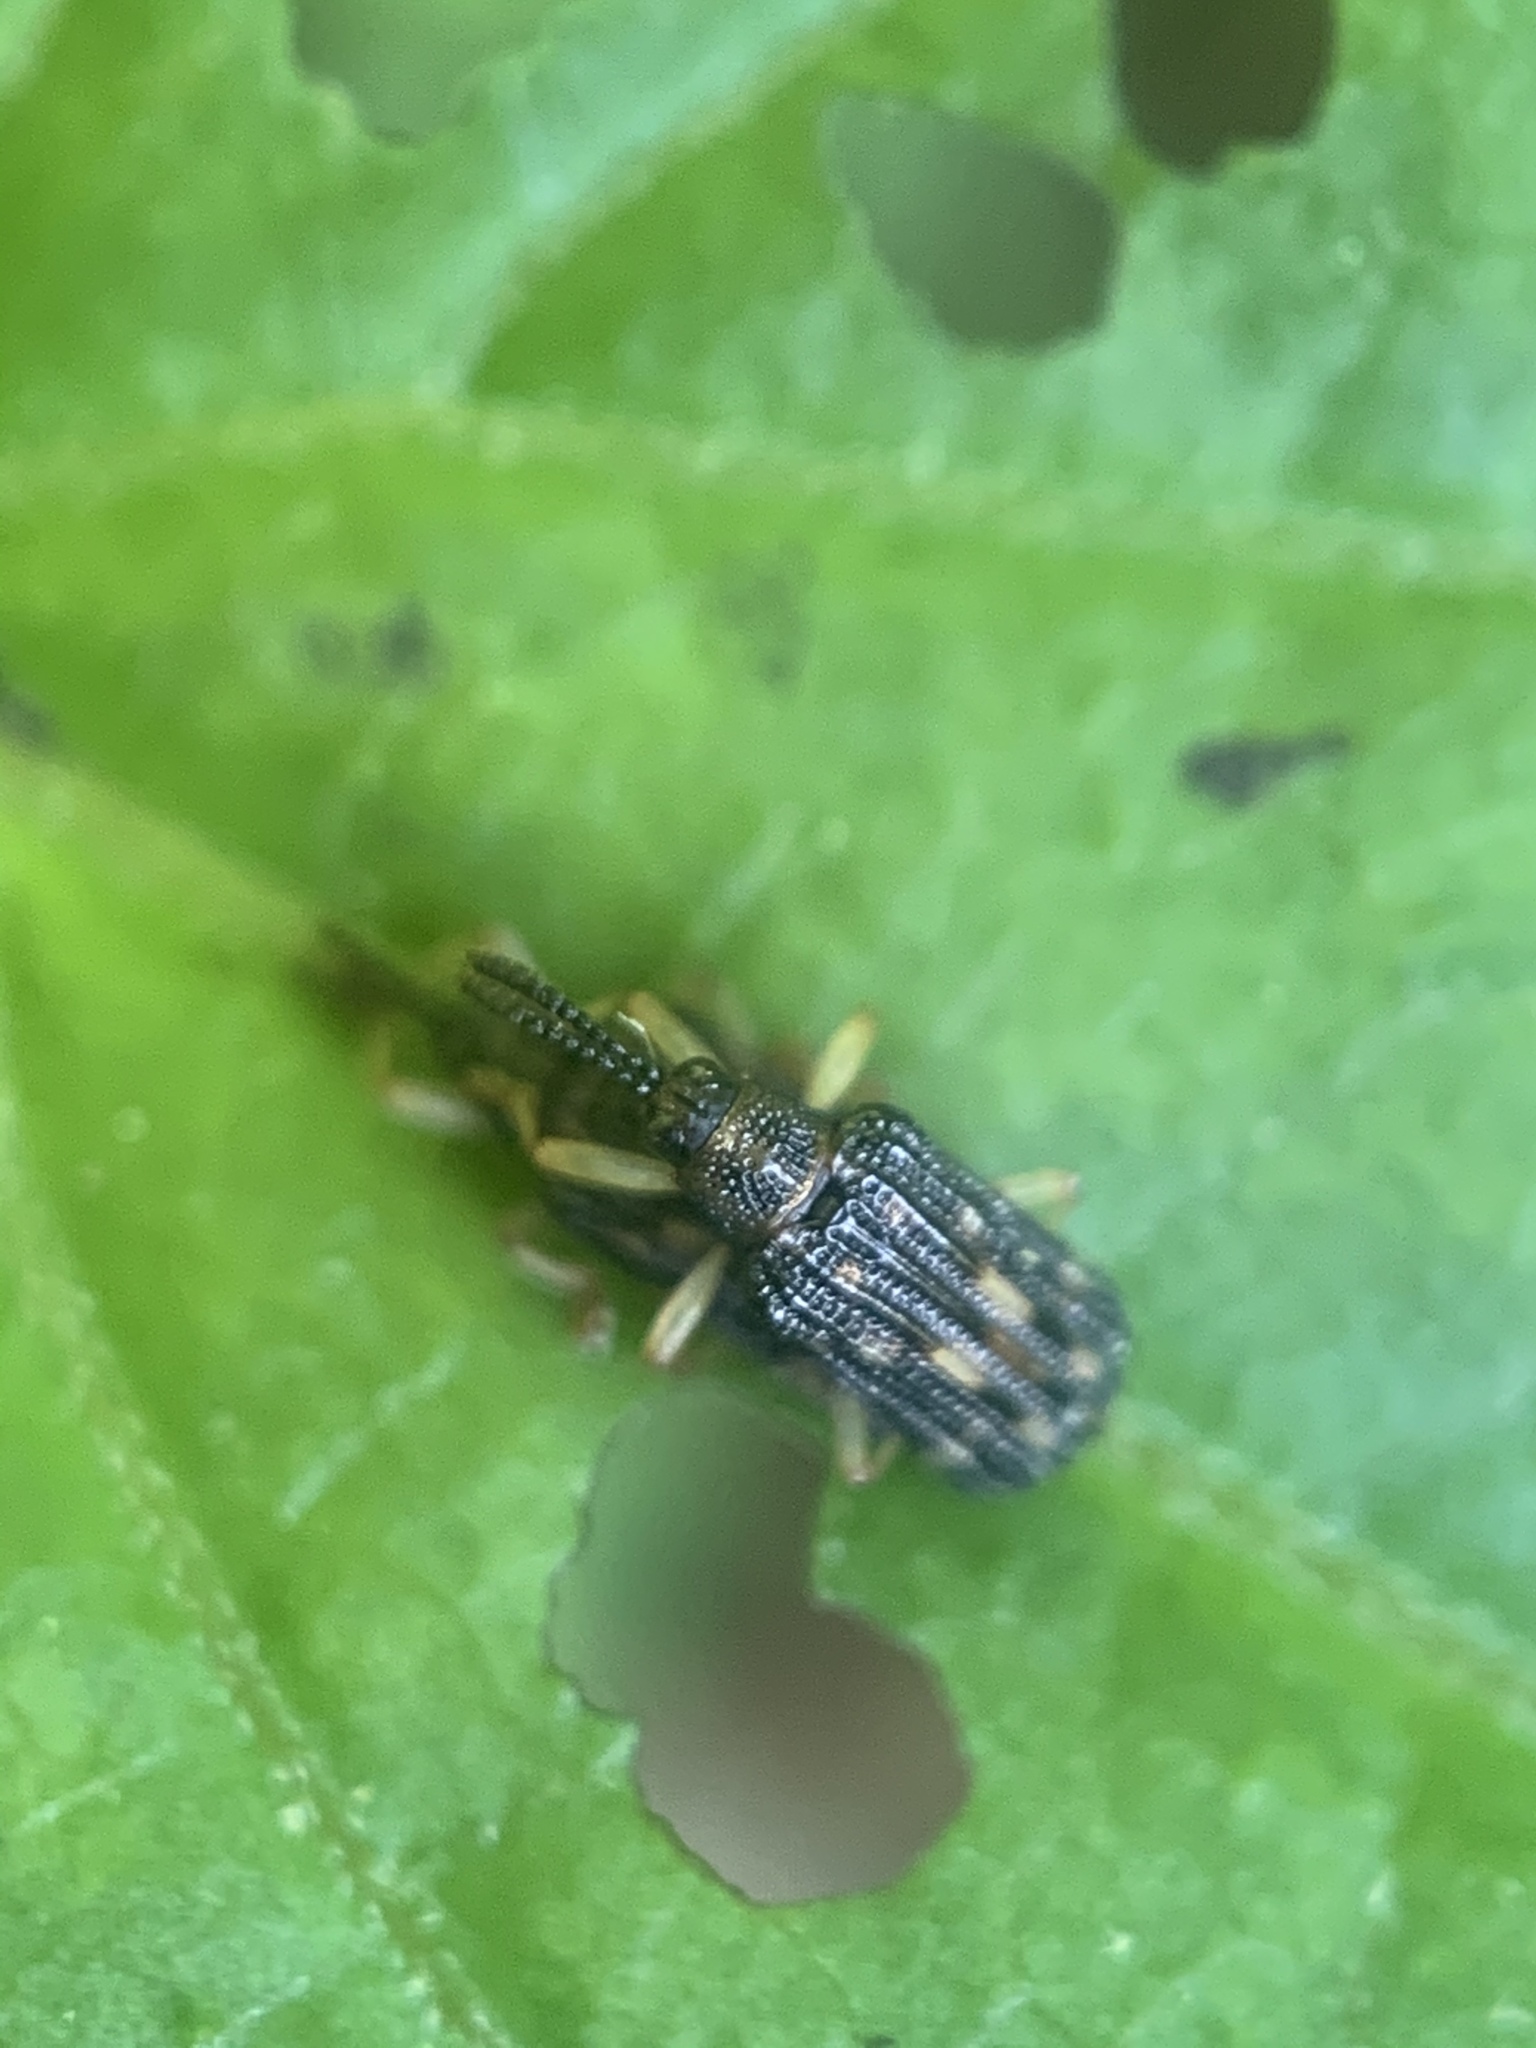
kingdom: Animalia
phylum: Arthropoda
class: Insecta
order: Coleoptera
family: Chrysomelidae
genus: Sumitrosis
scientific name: Sumitrosis inaequalis
